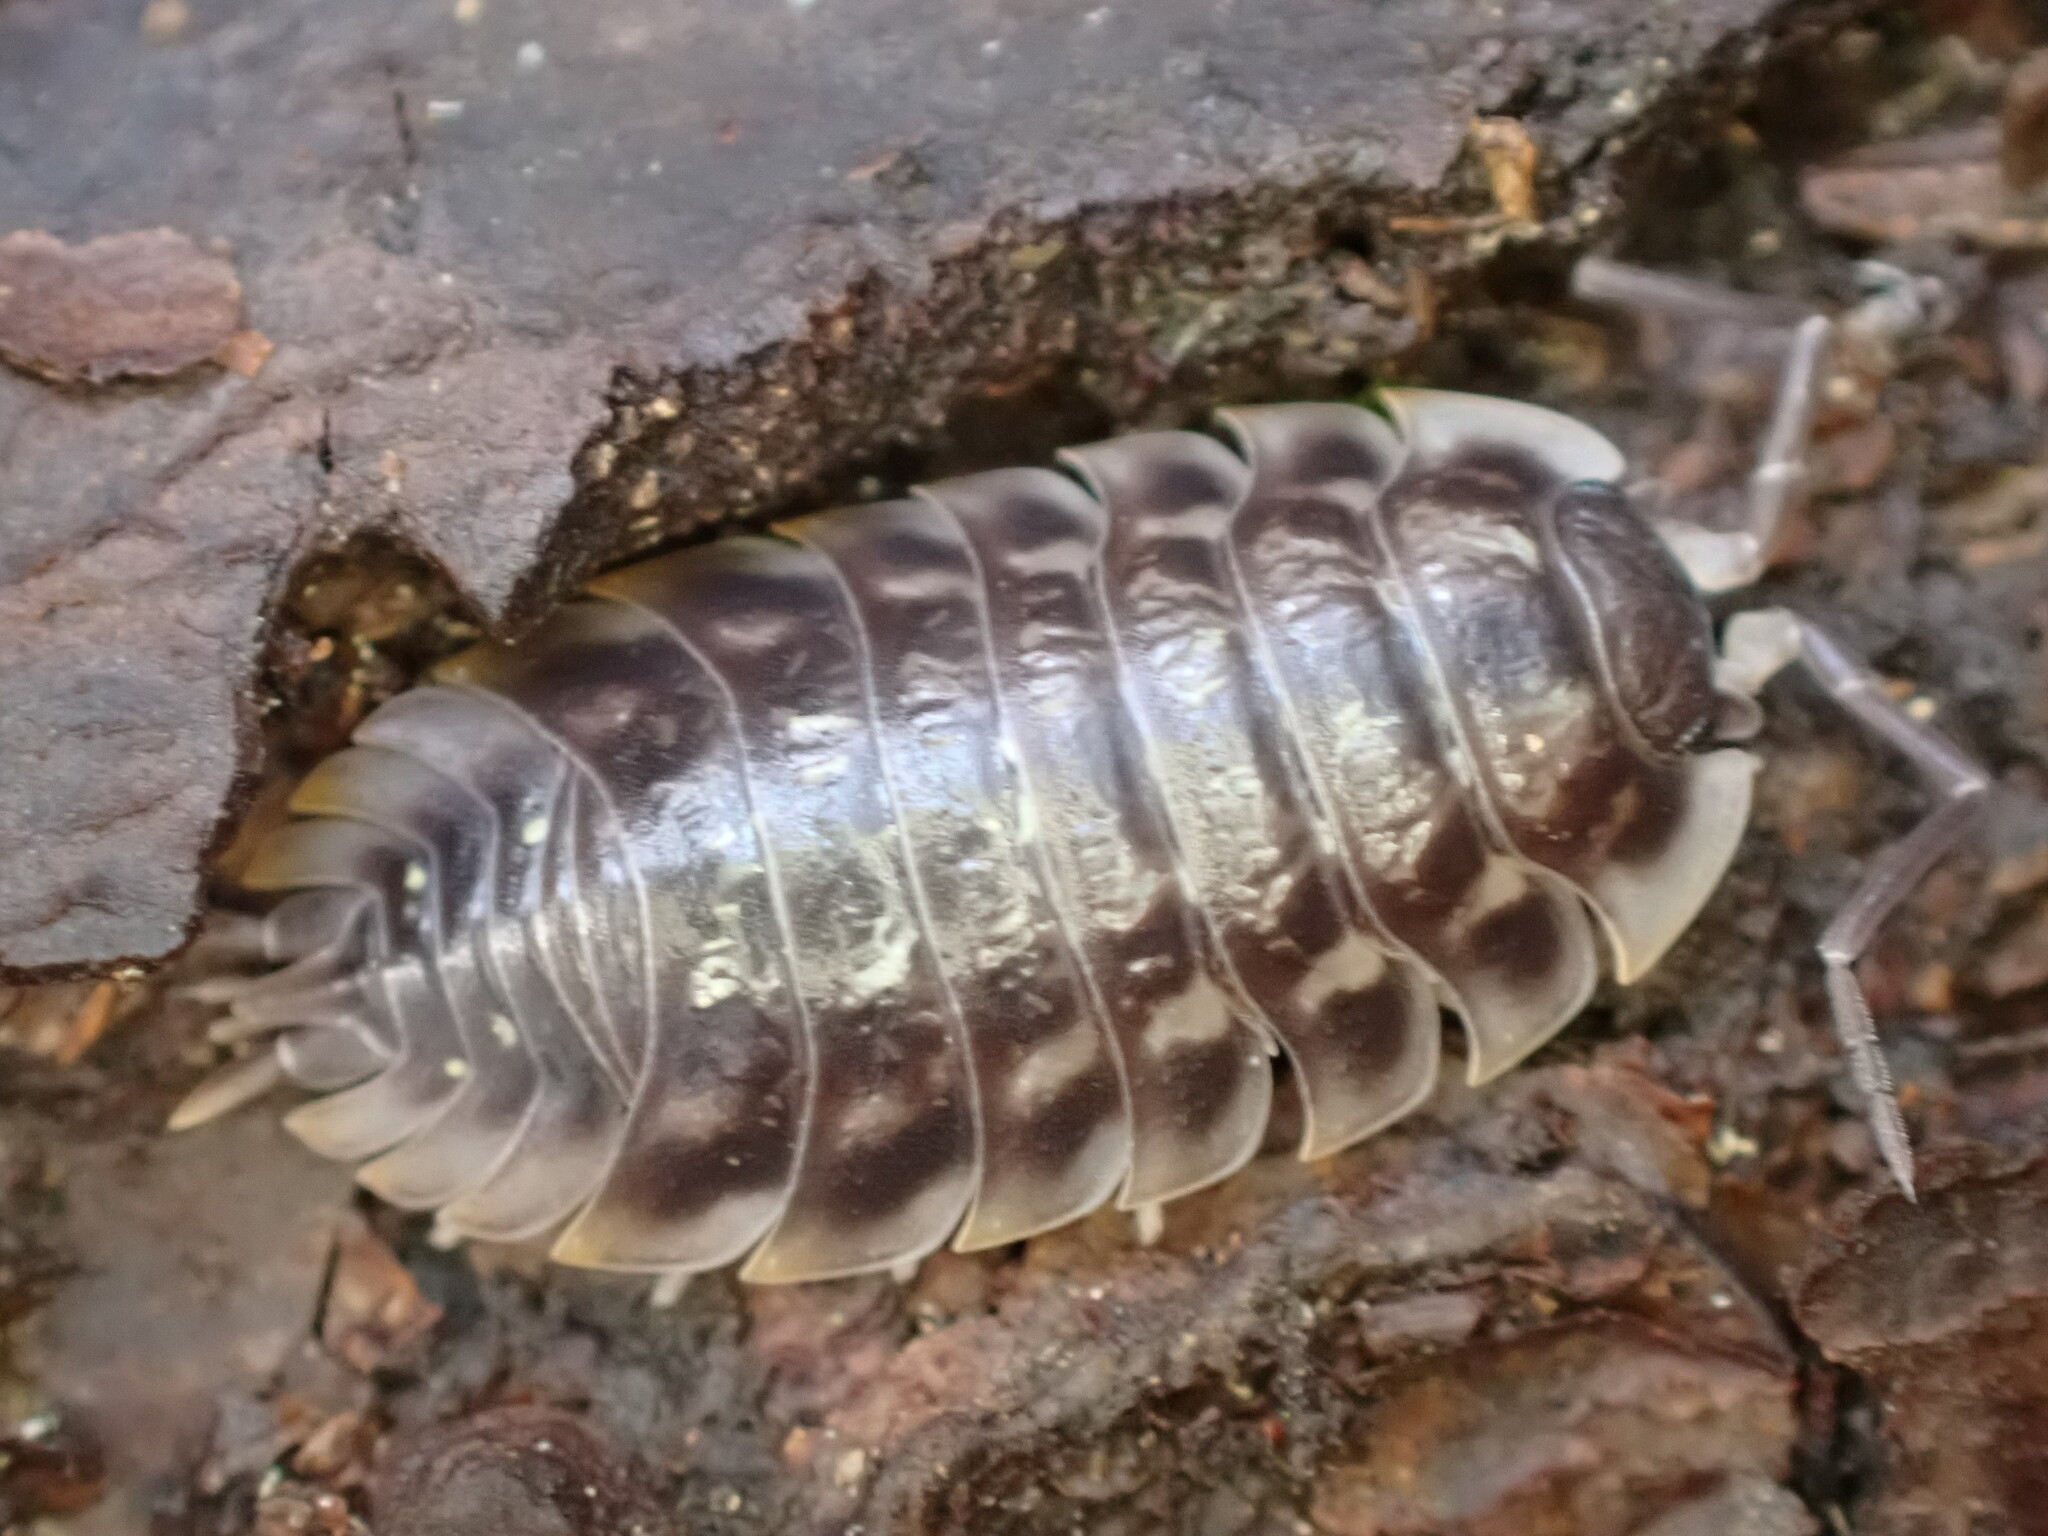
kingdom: Animalia
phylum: Arthropoda
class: Malacostraca
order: Isopoda
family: Oniscidae
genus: Oniscus
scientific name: Oniscus asellus
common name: Common shiny woodlouse
